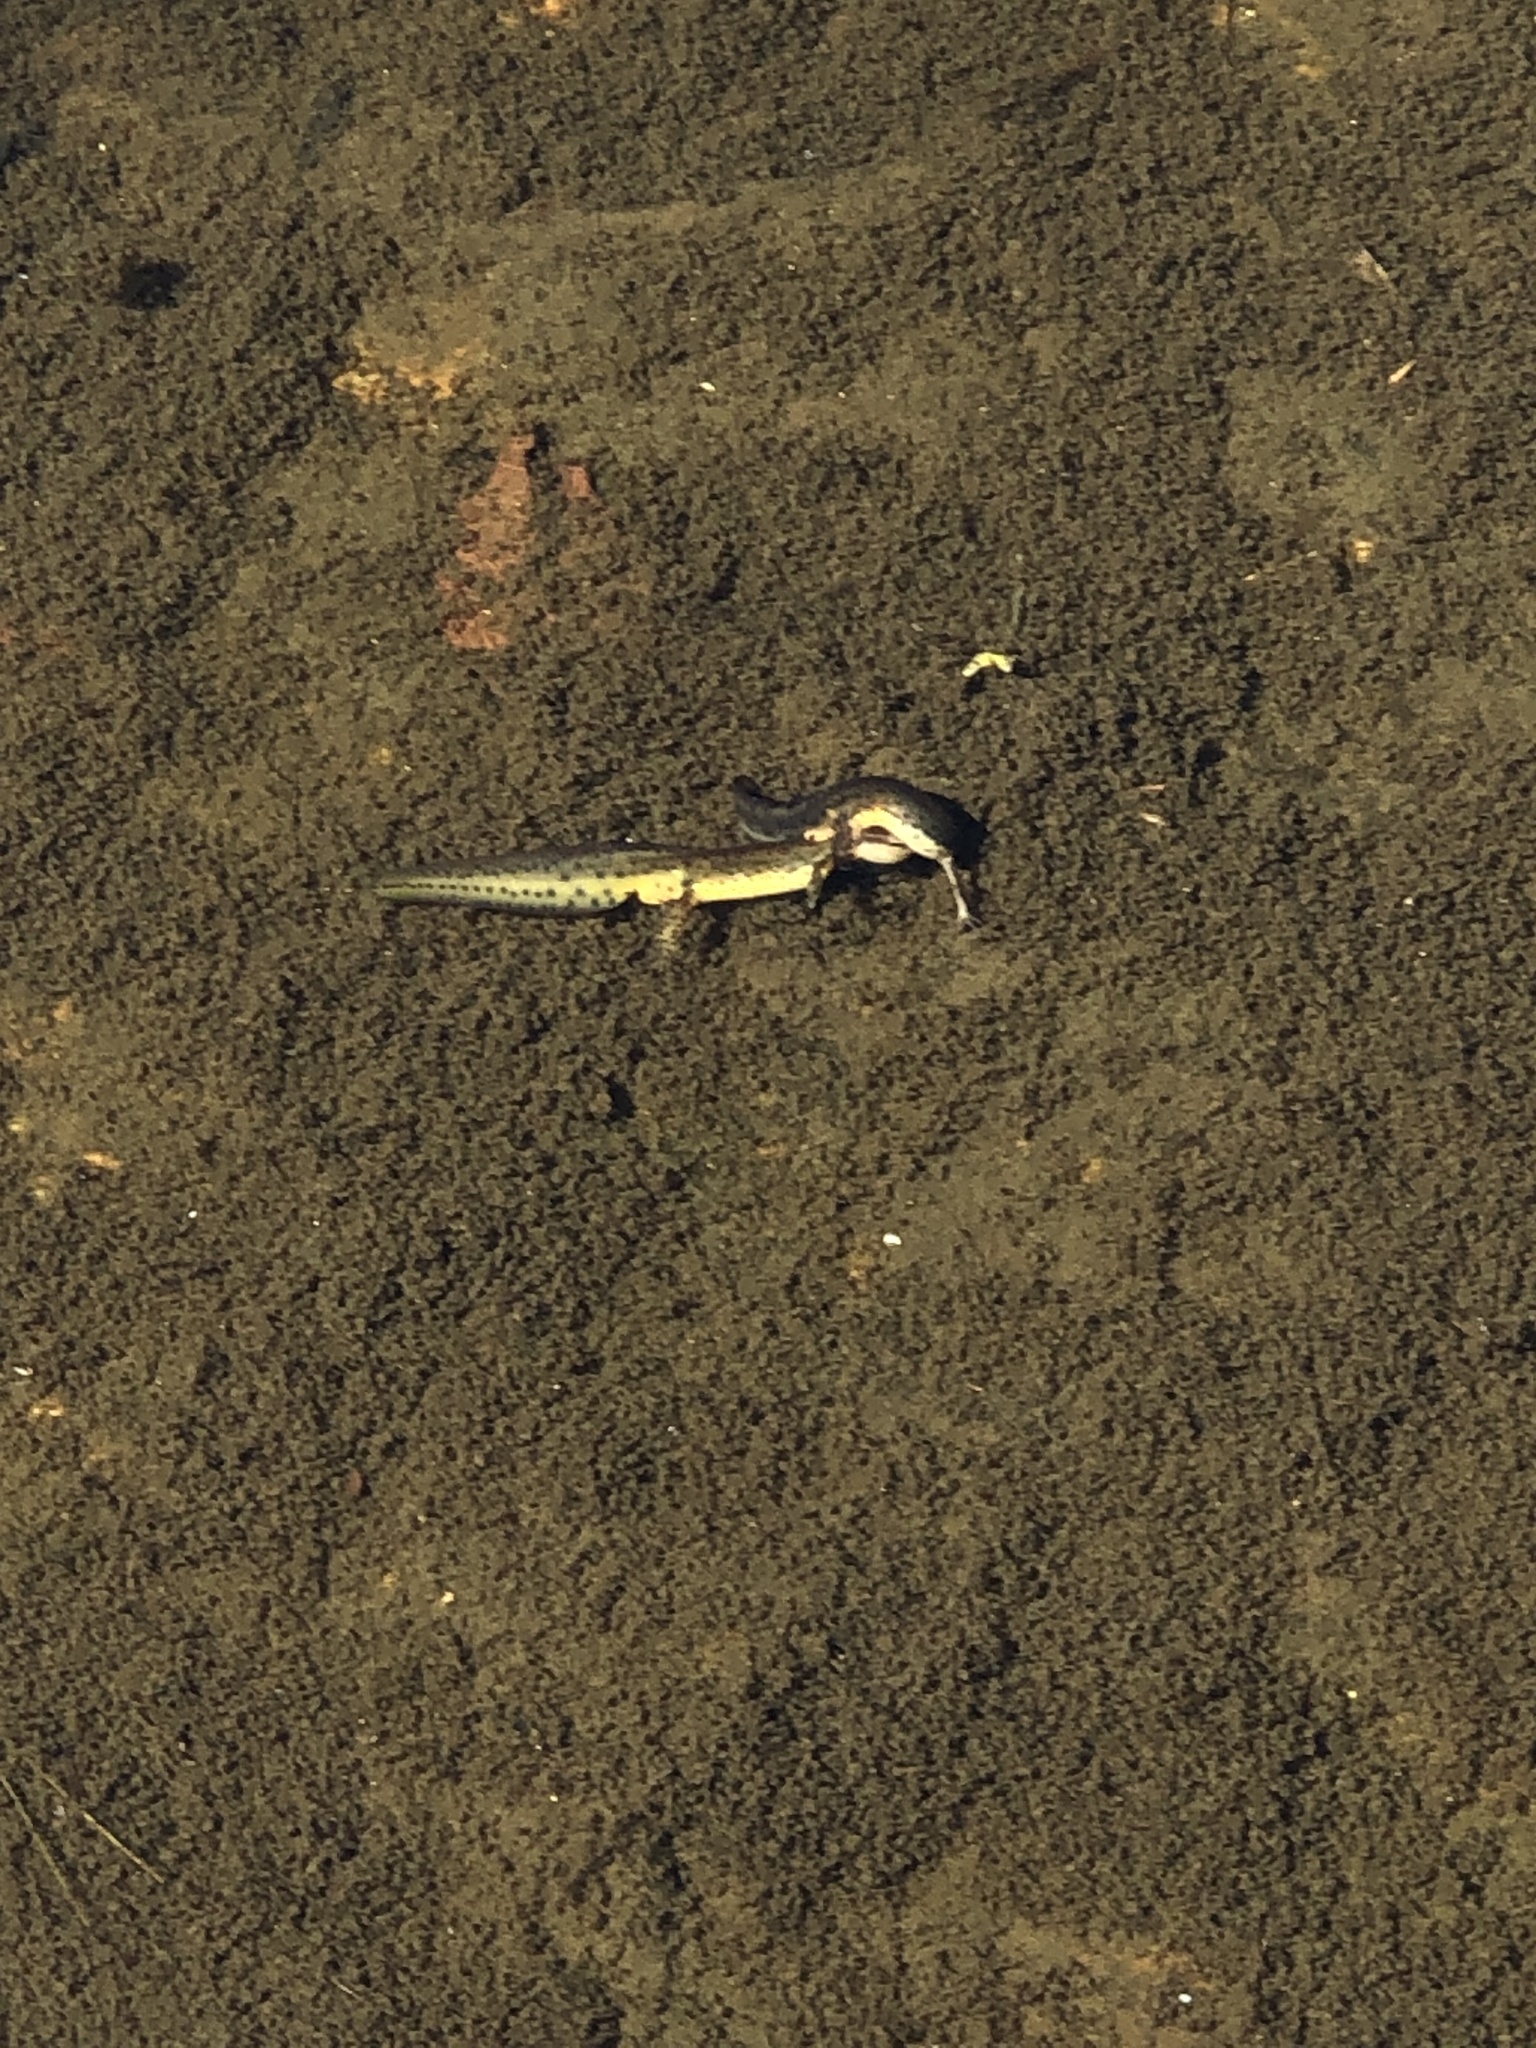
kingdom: Animalia
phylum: Chordata
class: Amphibia
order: Caudata
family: Salamandridae
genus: Notophthalmus
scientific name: Notophthalmus viridescens
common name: Eastern newt
